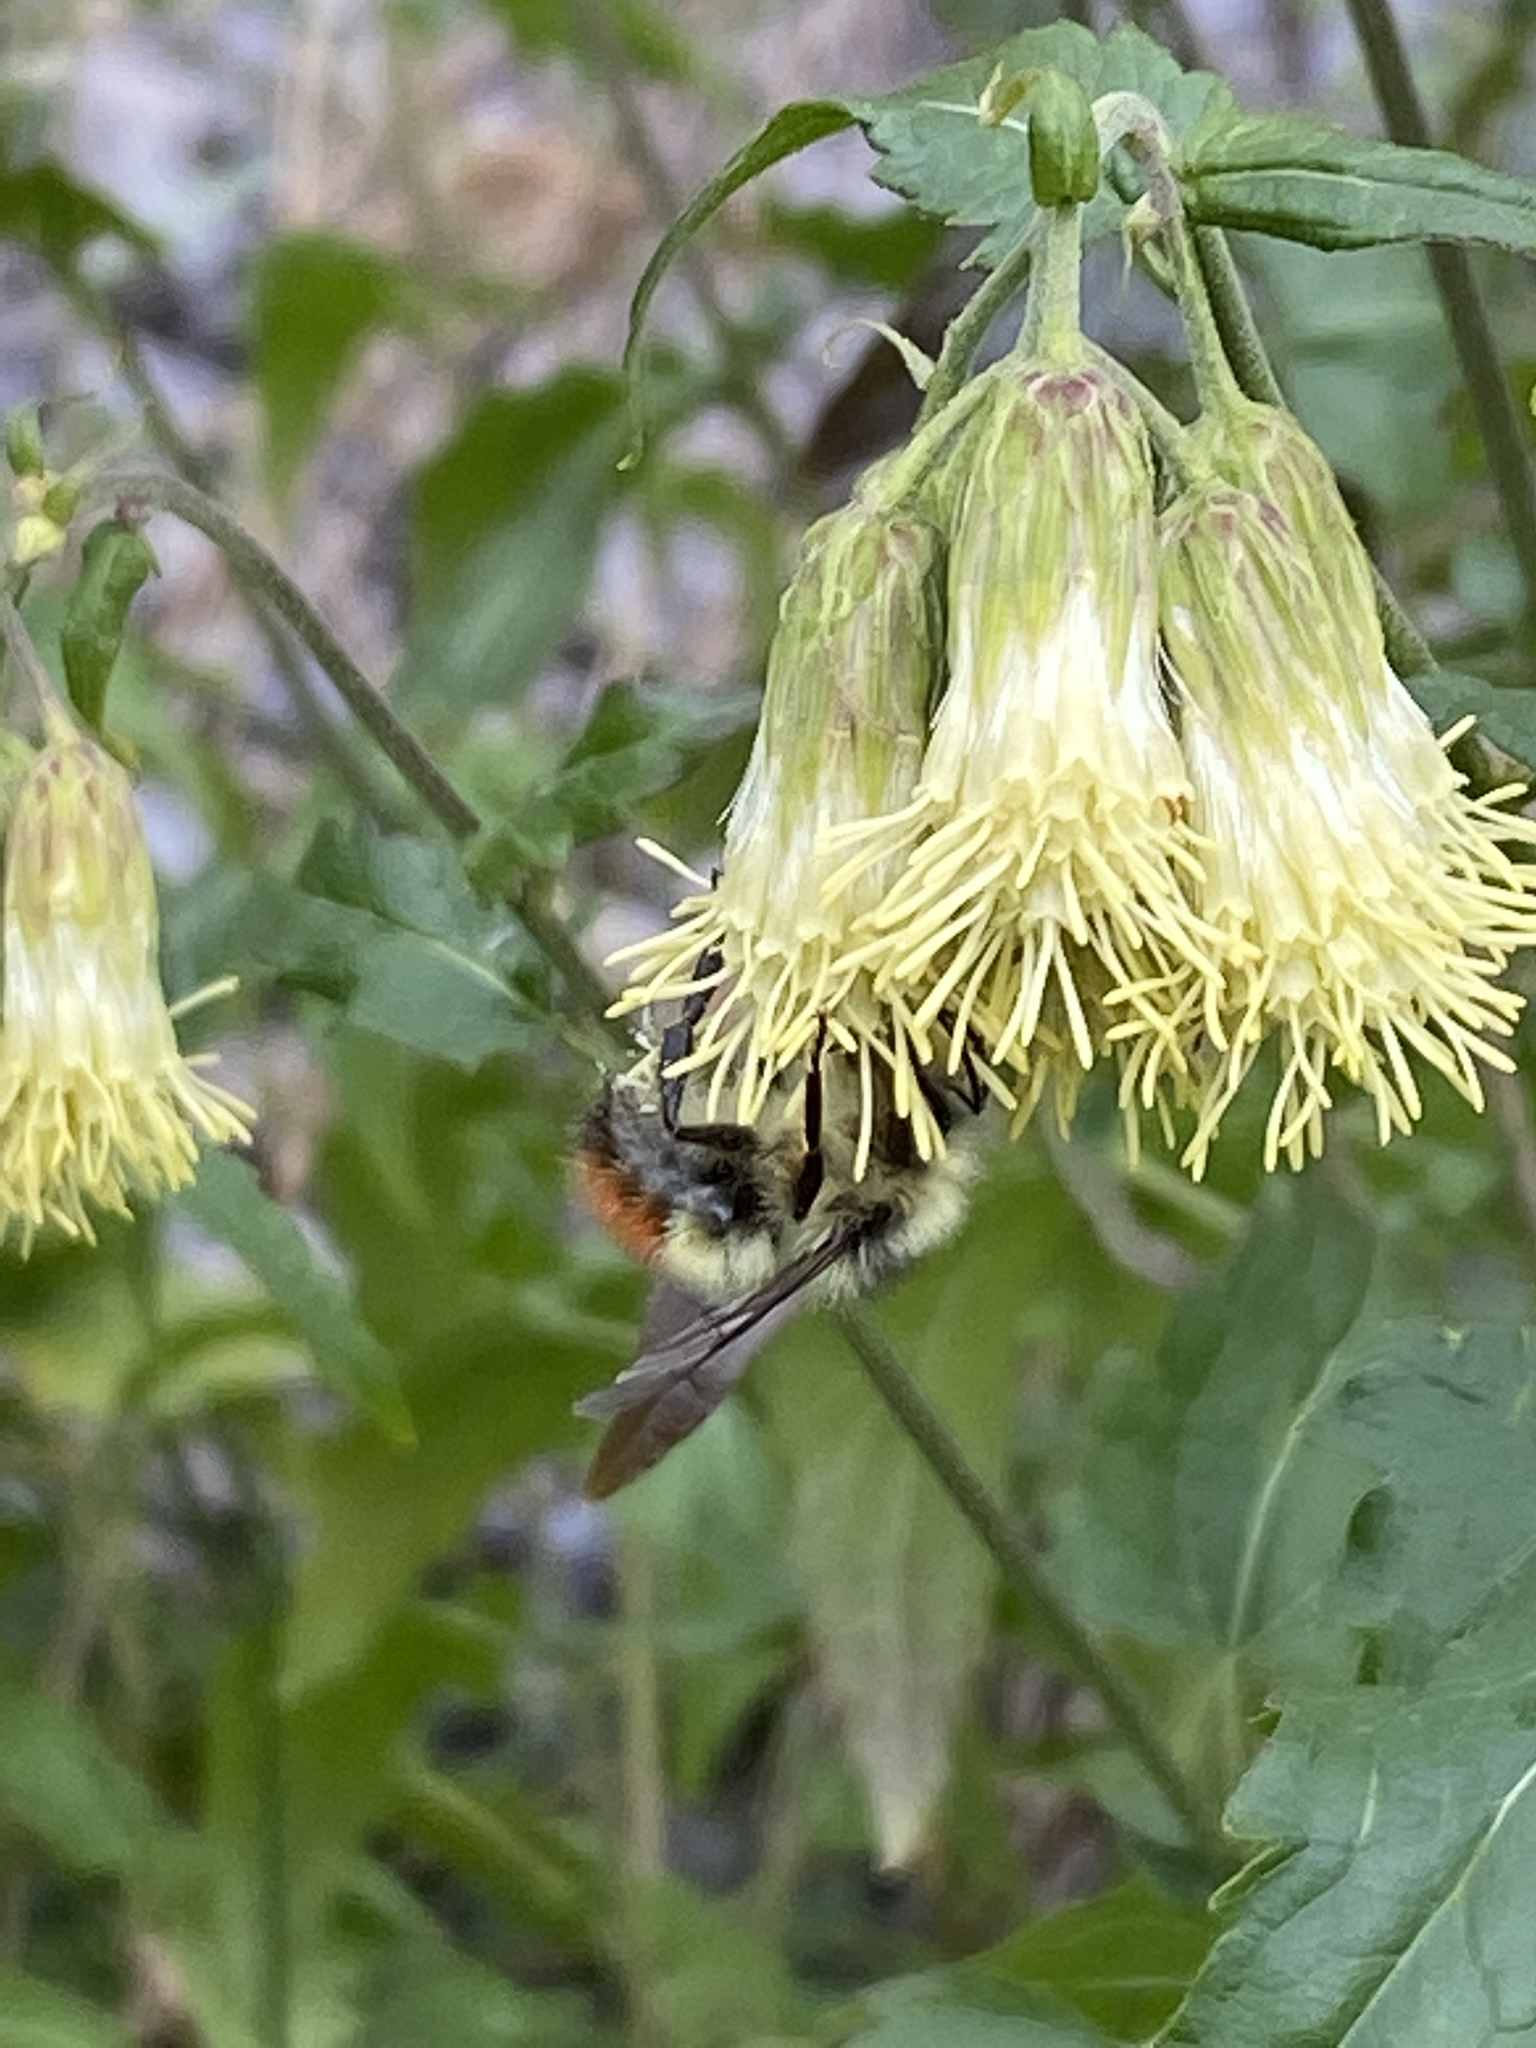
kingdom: Animalia
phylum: Arthropoda
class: Insecta
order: Hymenoptera
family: Apidae
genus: Bombus
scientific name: Bombus flavifrons
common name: Yellow head bumble bee
